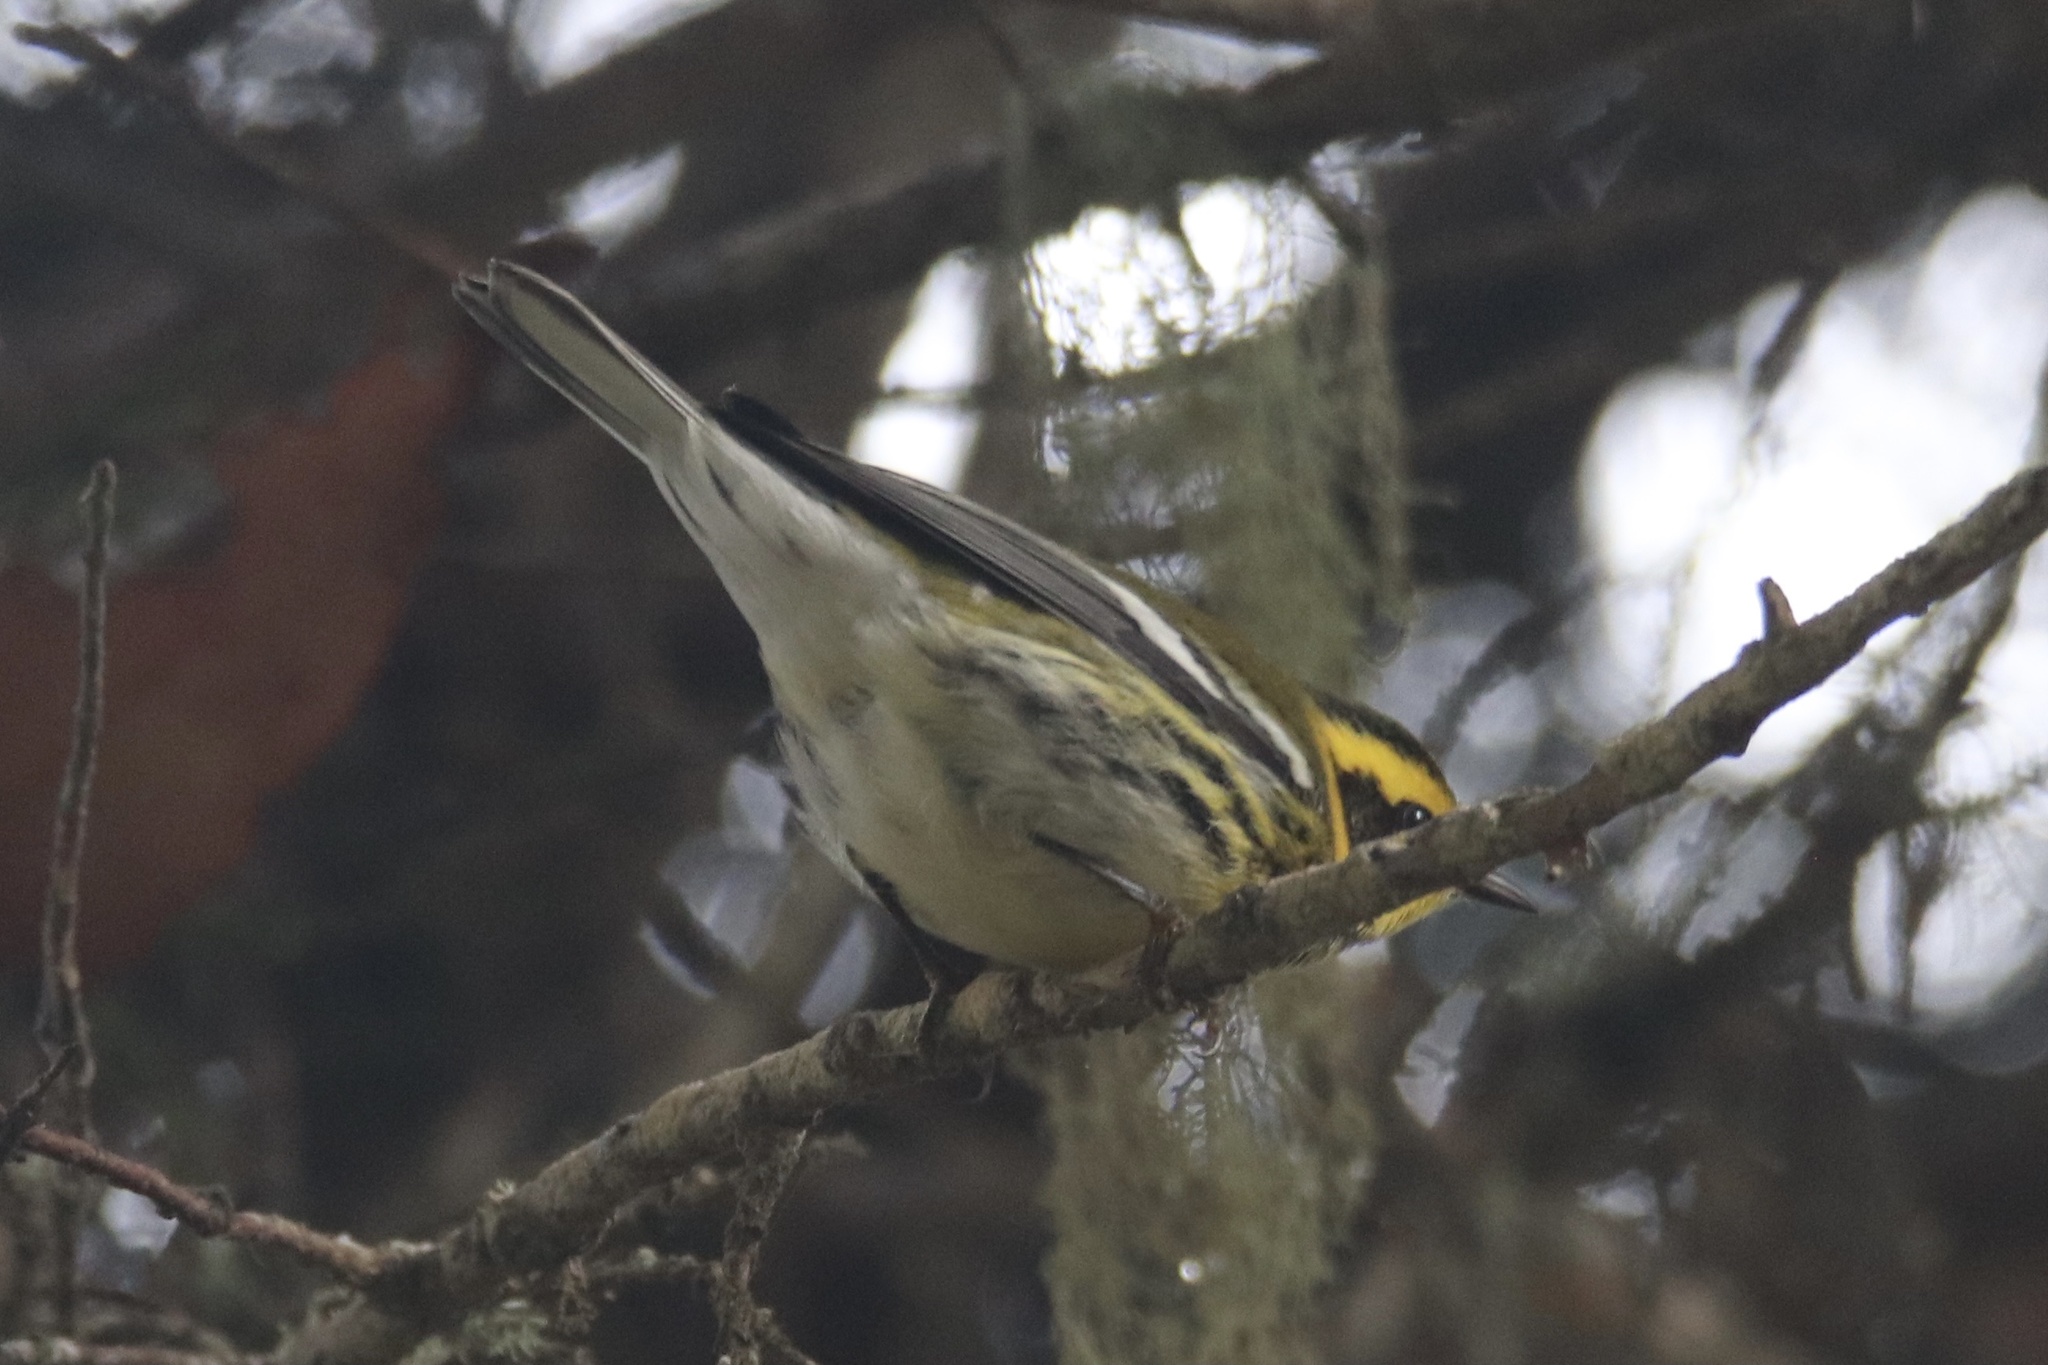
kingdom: Animalia
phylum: Chordata
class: Aves
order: Passeriformes
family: Parulidae
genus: Setophaga
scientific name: Setophaga townsendi
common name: Townsend's warbler
